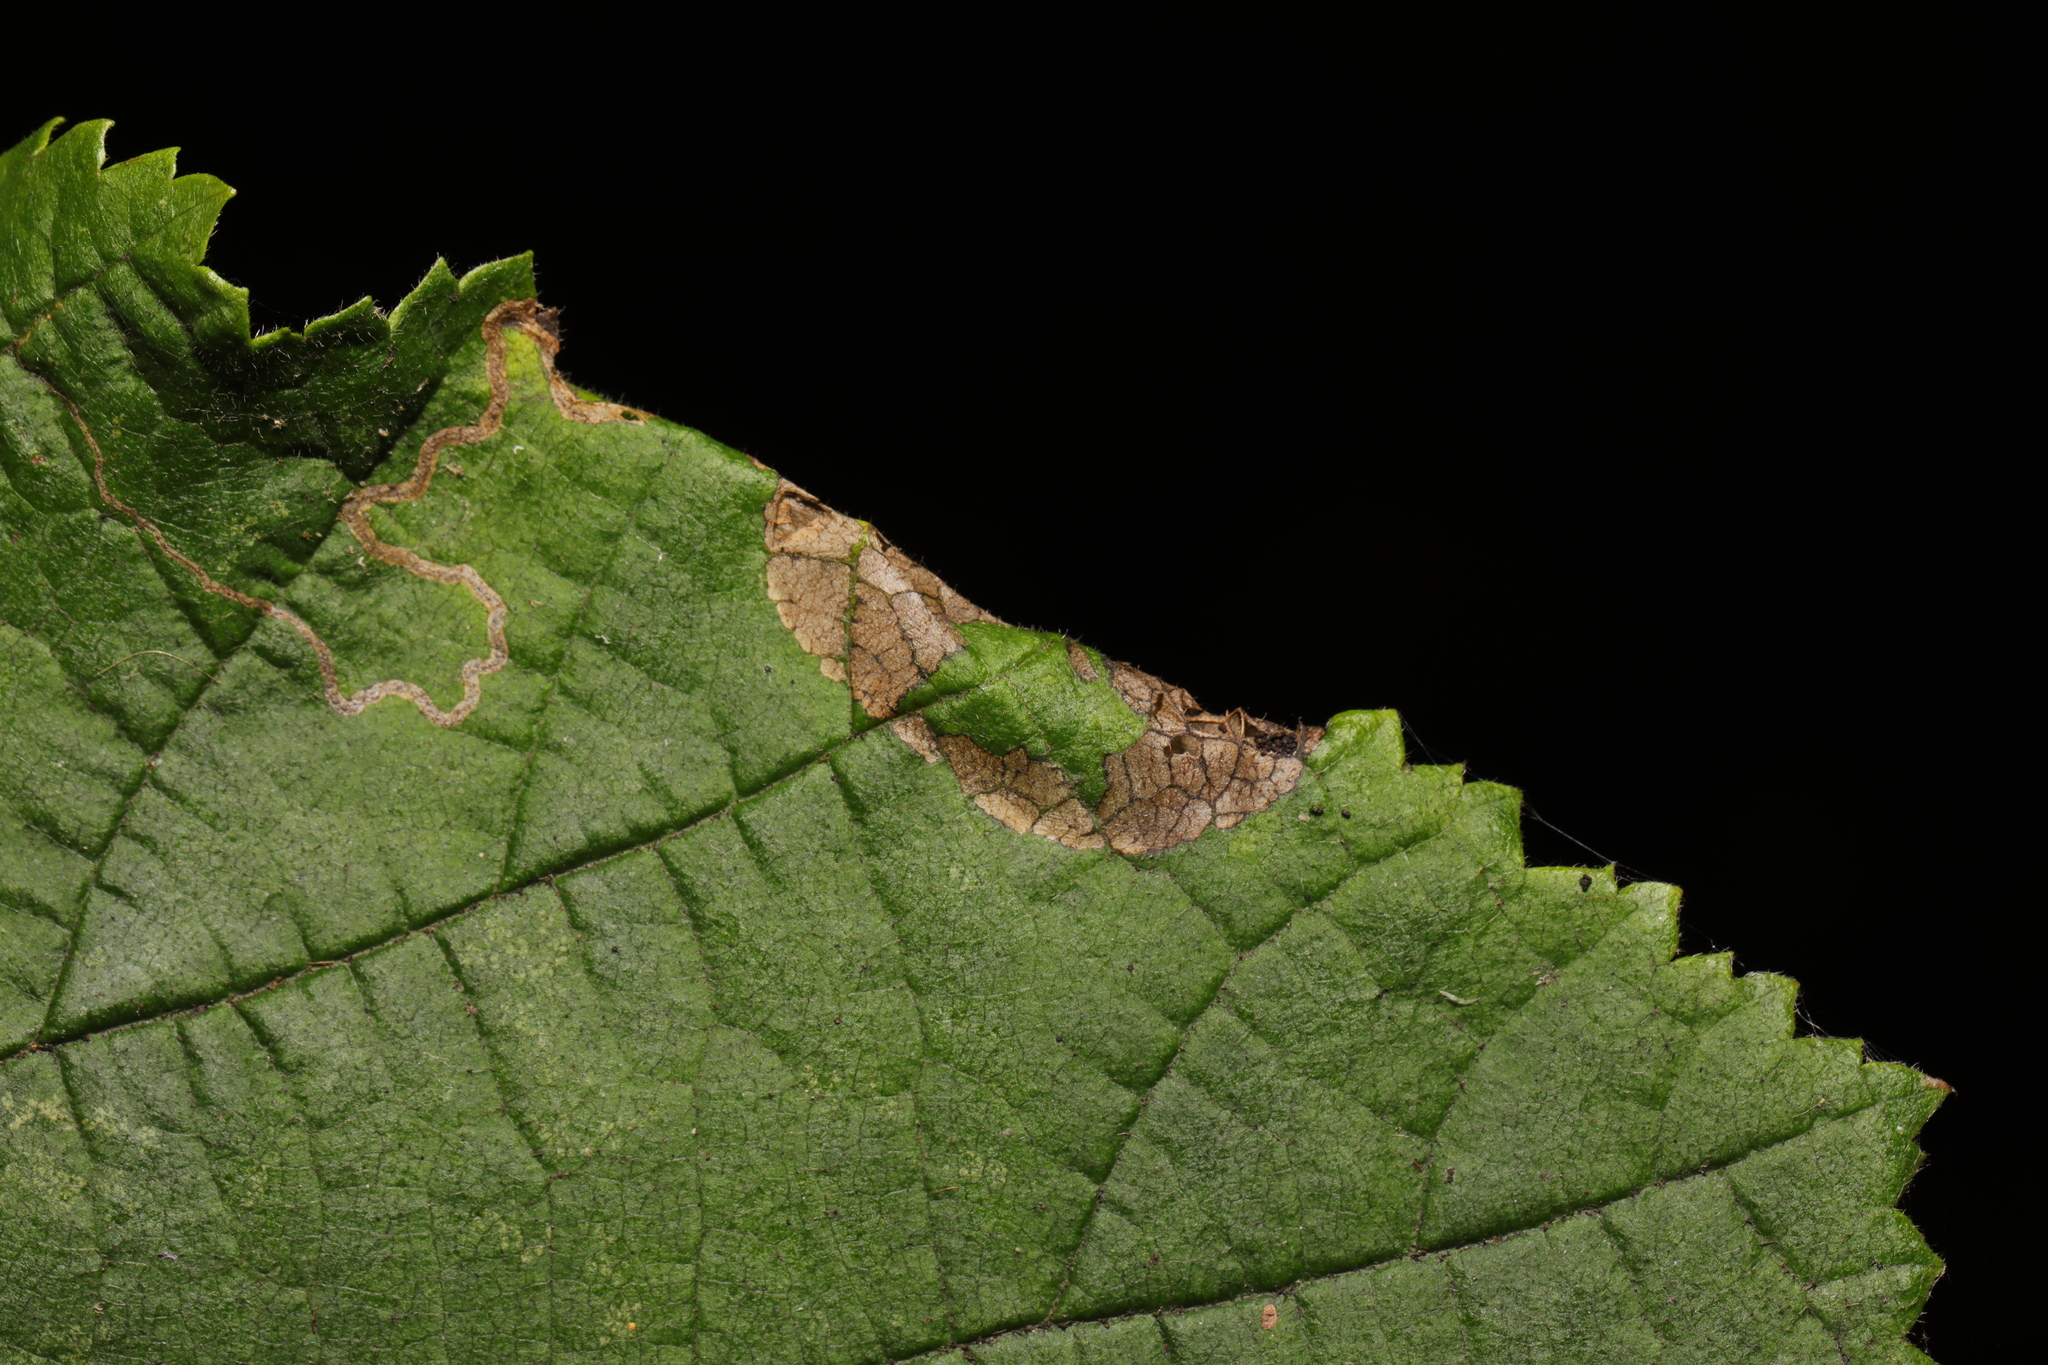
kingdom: Animalia
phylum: Arthropoda
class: Insecta
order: Lepidoptera
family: Gracillariidae
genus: Parornix
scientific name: Parornix devoniella
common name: Hazel slender
